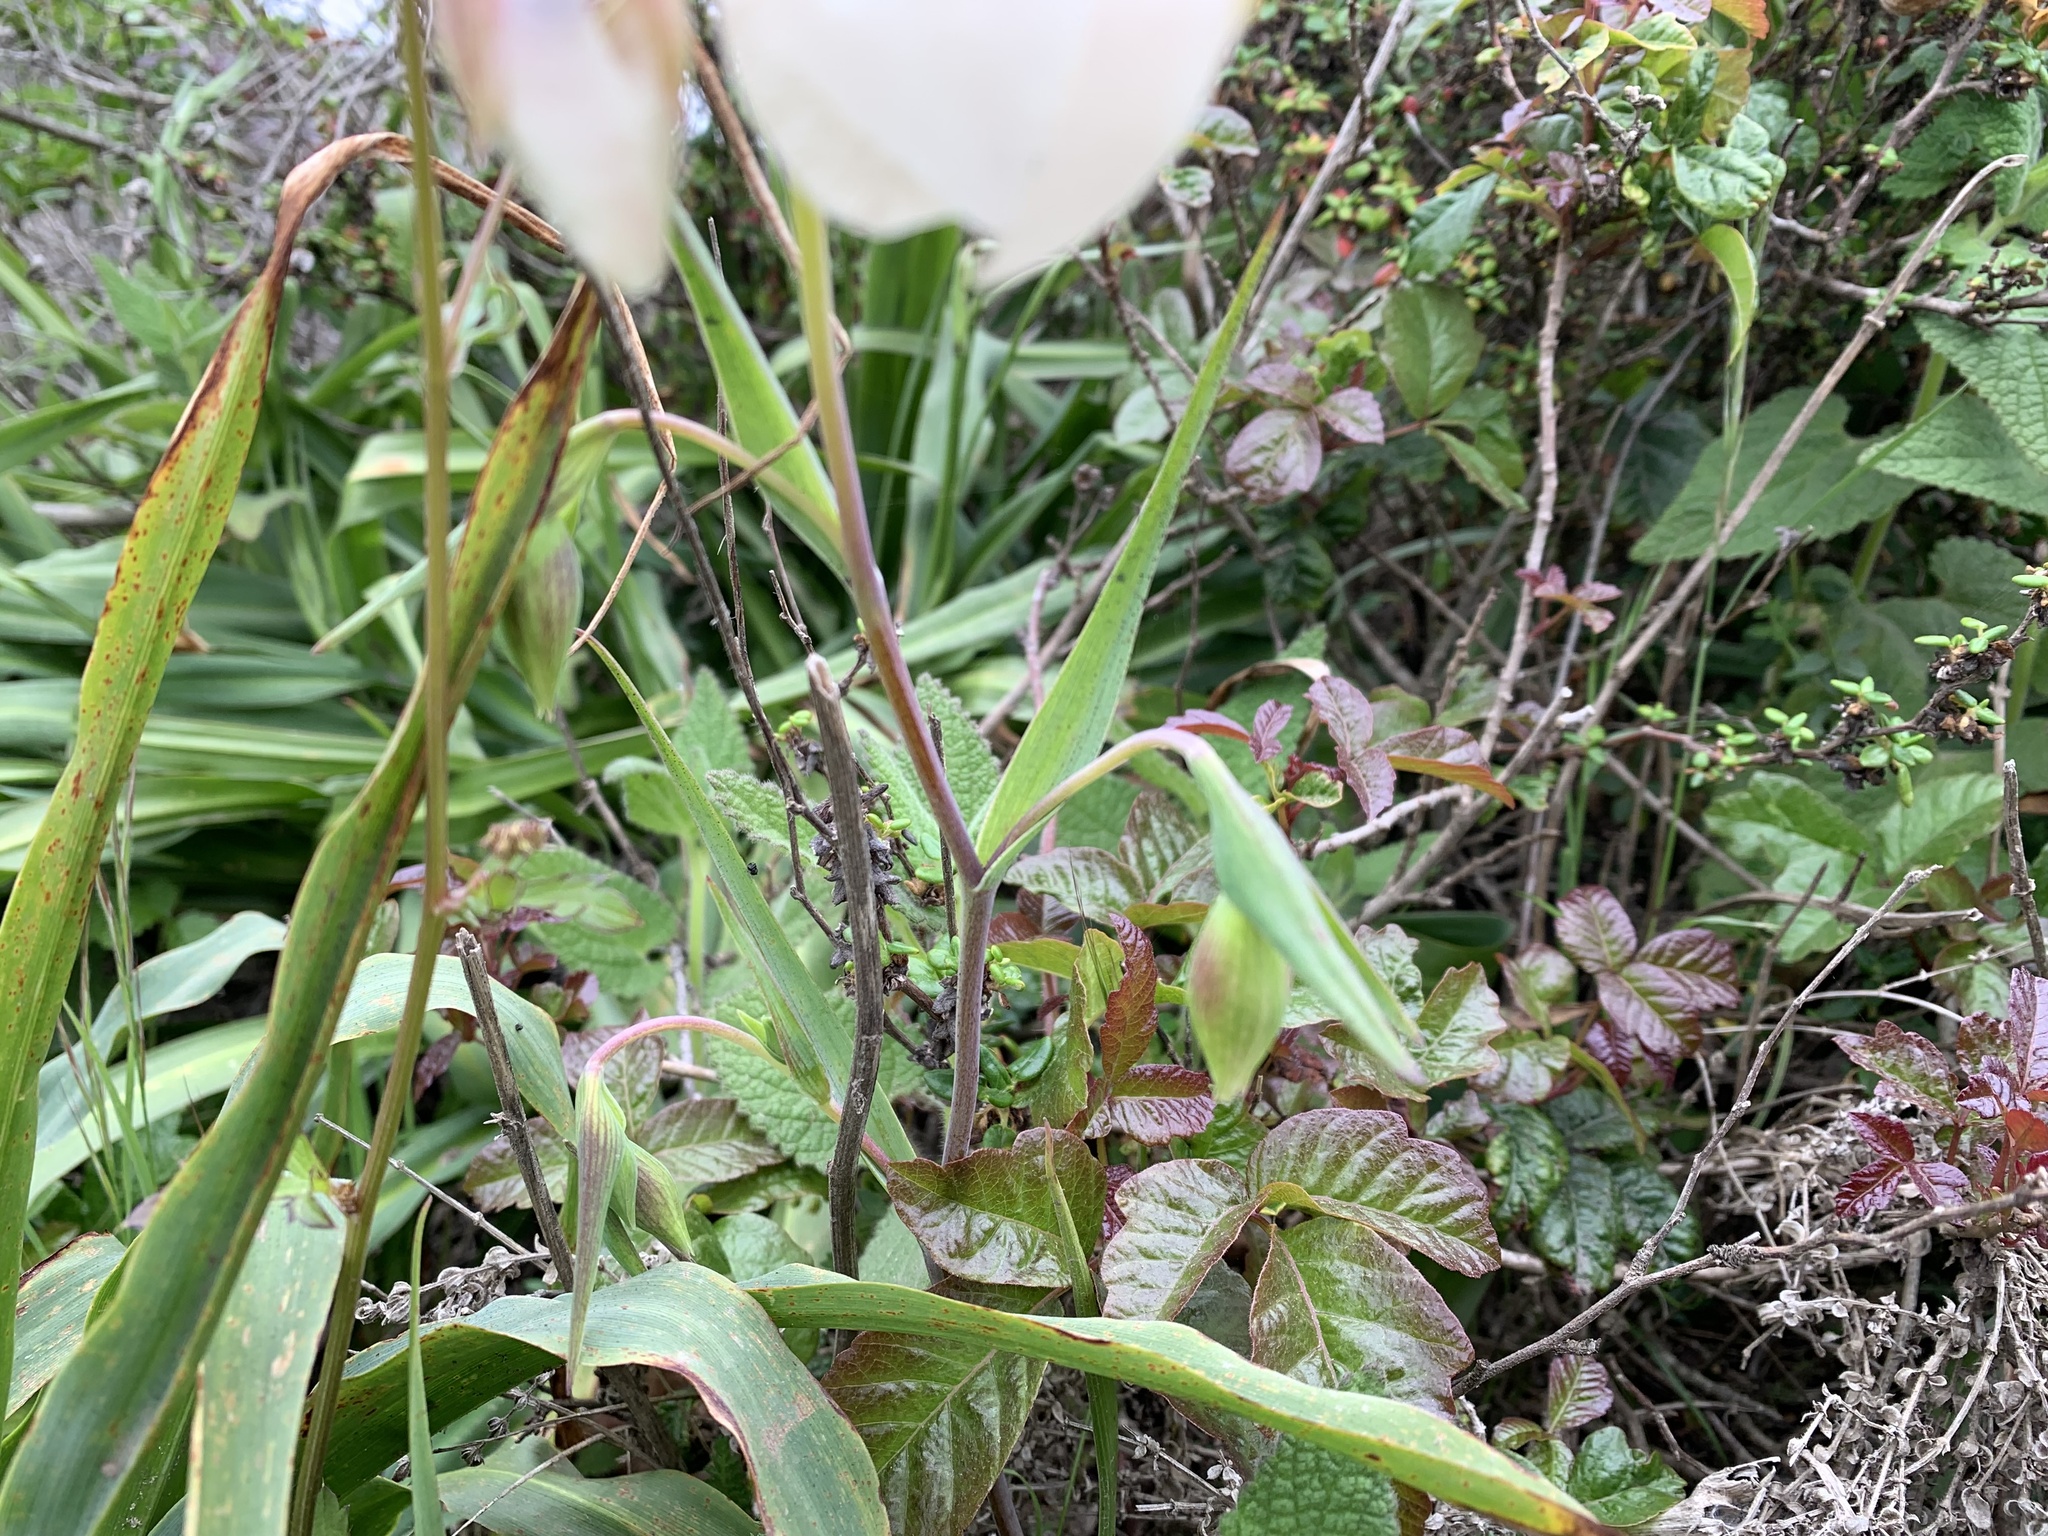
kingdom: Plantae
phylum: Tracheophyta
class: Liliopsida
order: Liliales
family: Liliaceae
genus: Calochortus
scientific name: Calochortus albus
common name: Fairy-lantern
